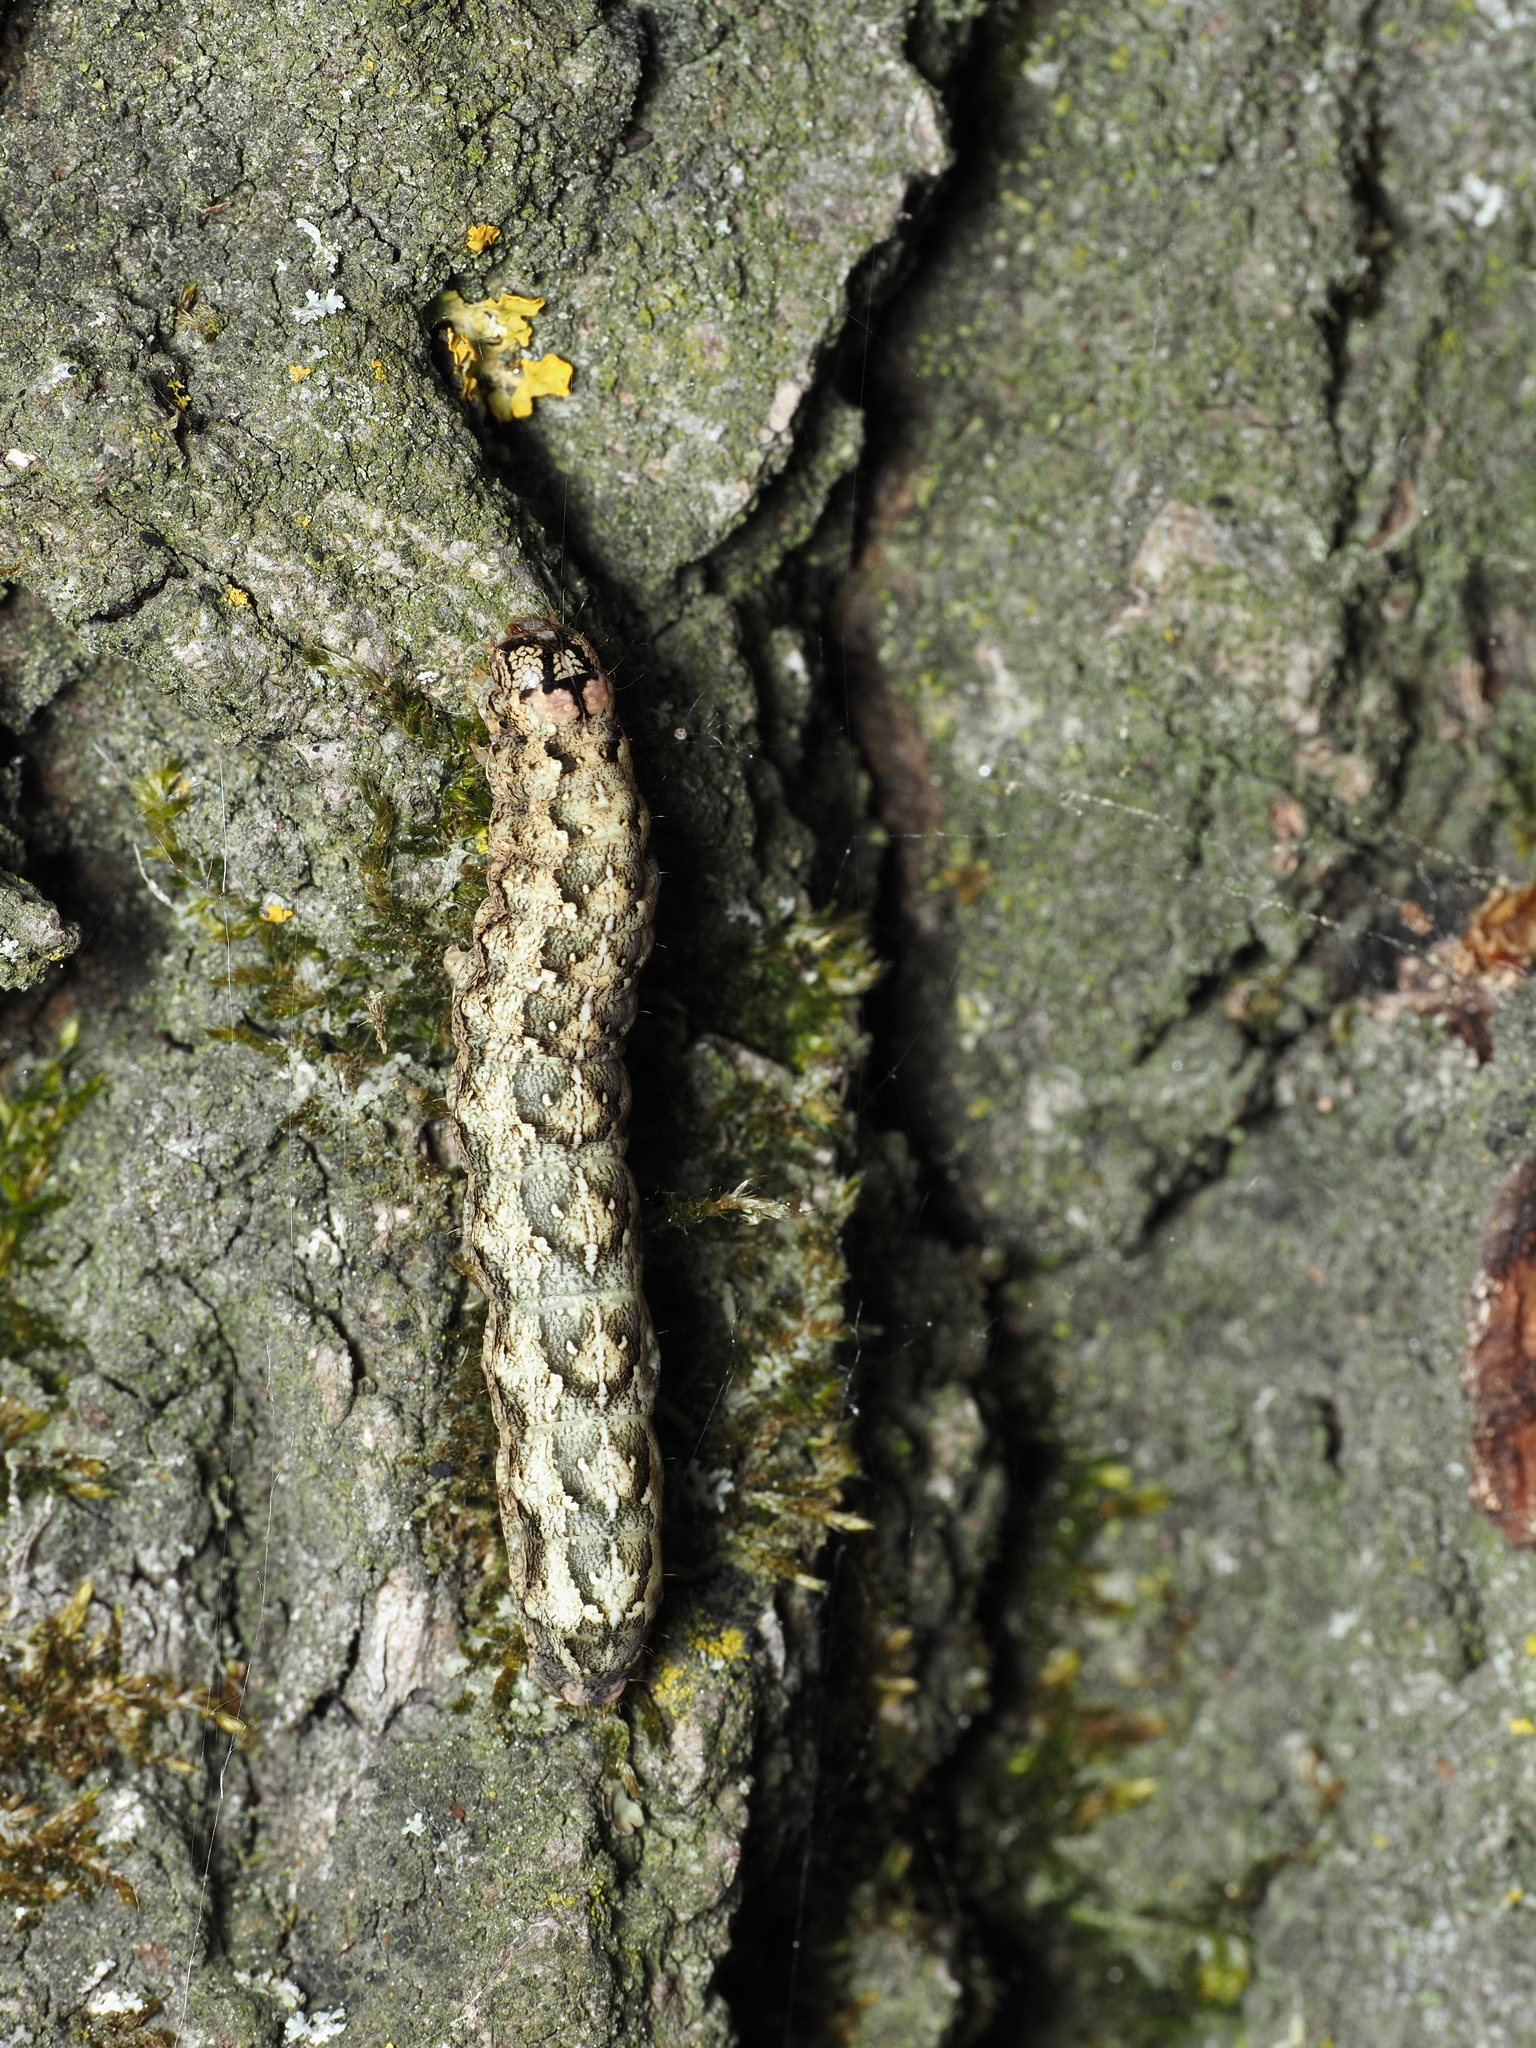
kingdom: Animalia
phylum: Arthropoda
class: Insecta
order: Lepidoptera
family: Noctuidae
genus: Griposia
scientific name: Griposia aprilina
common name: Merveille du jour
